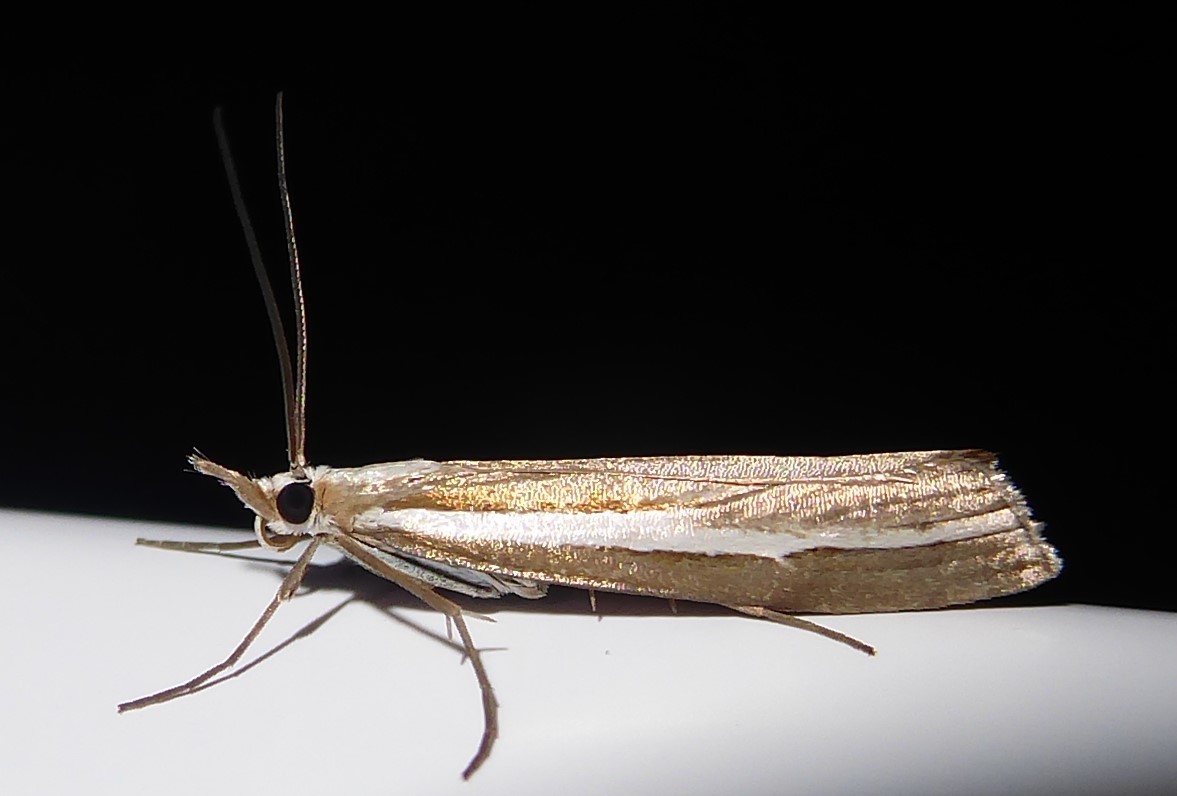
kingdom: Animalia
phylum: Arthropoda
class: Insecta
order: Lepidoptera
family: Crambidae
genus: Orocrambus
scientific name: Orocrambus vittellus
